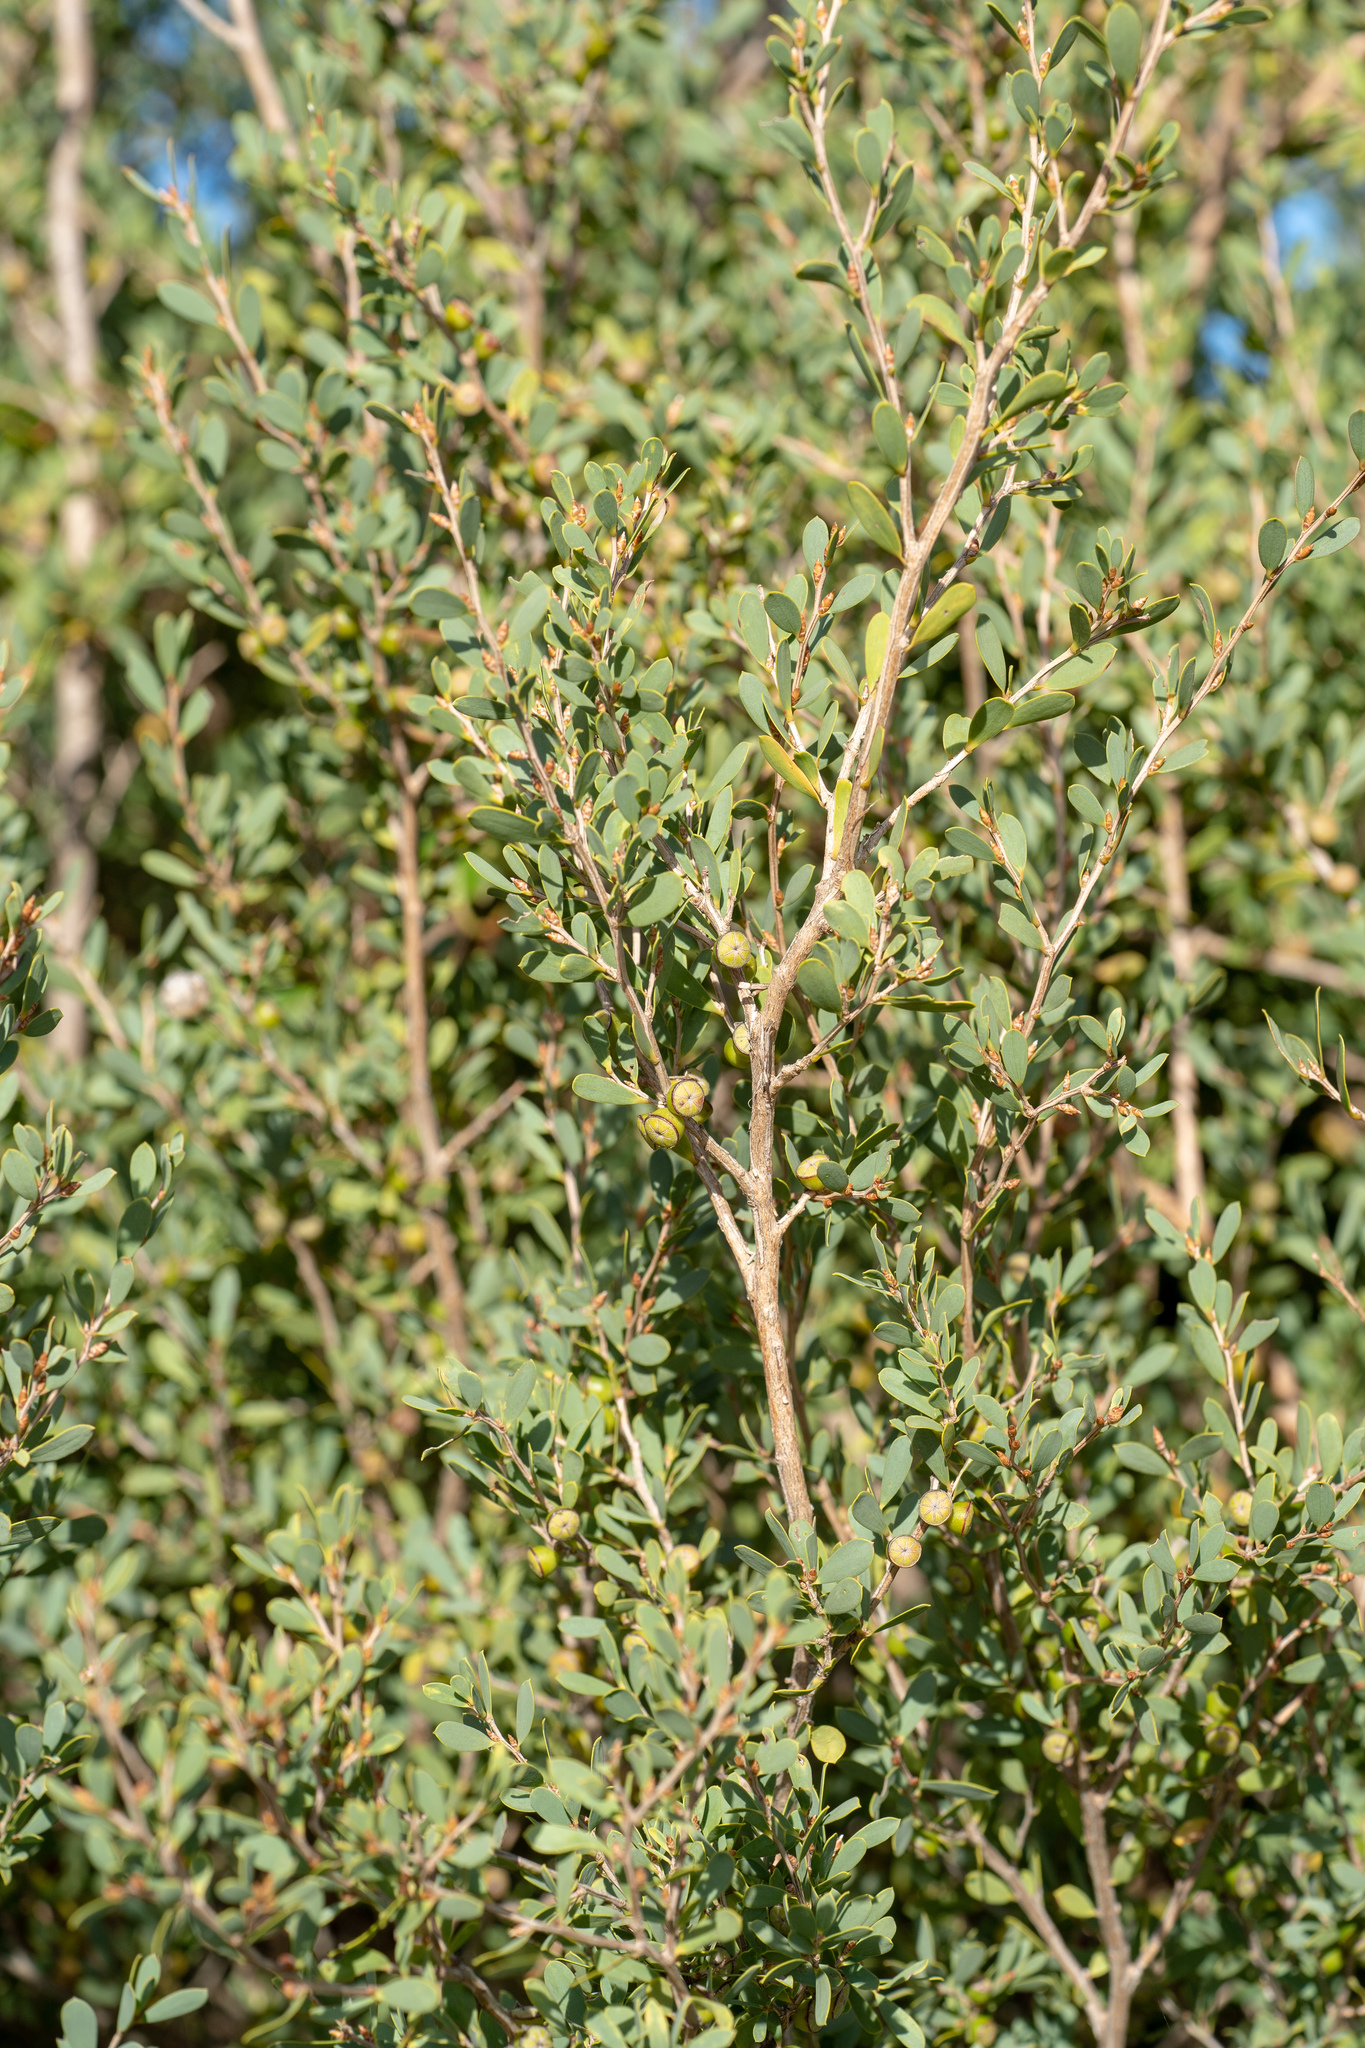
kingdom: Plantae
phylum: Tracheophyta
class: Magnoliopsida
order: Myrtales
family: Myrtaceae
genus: Leptospermum
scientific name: Leptospermum laevigatum
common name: Australian teatree
